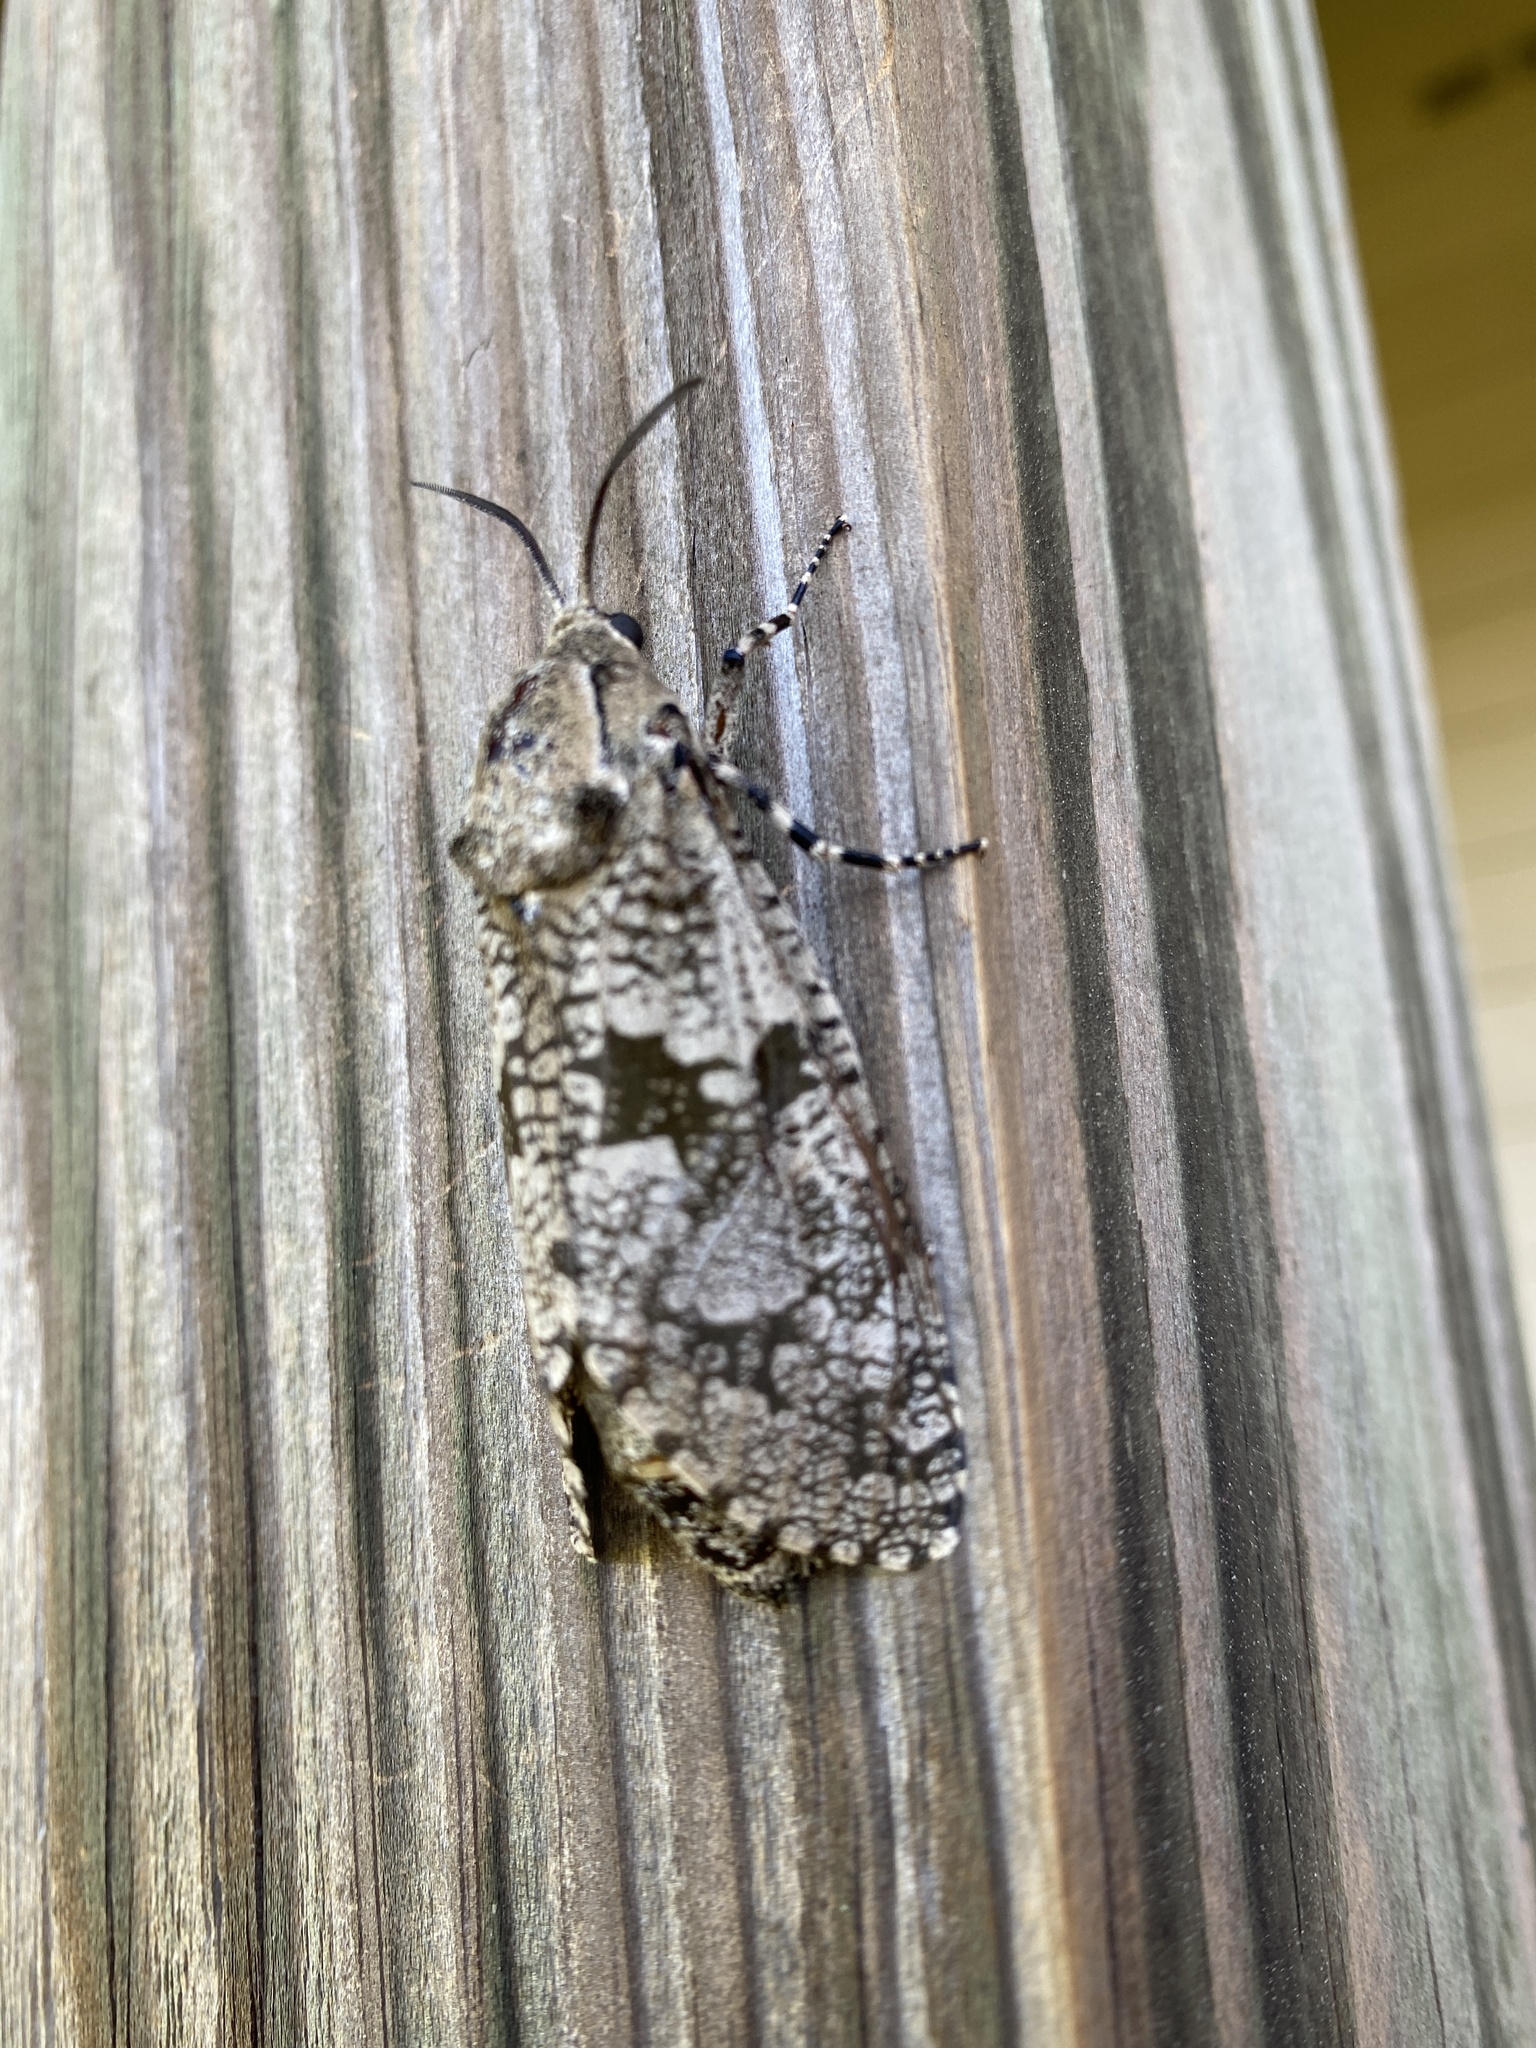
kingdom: Animalia
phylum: Arthropoda
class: Insecta
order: Lepidoptera
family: Cossidae
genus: Prionoxystus
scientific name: Prionoxystus robiniae
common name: Carpenterworm
